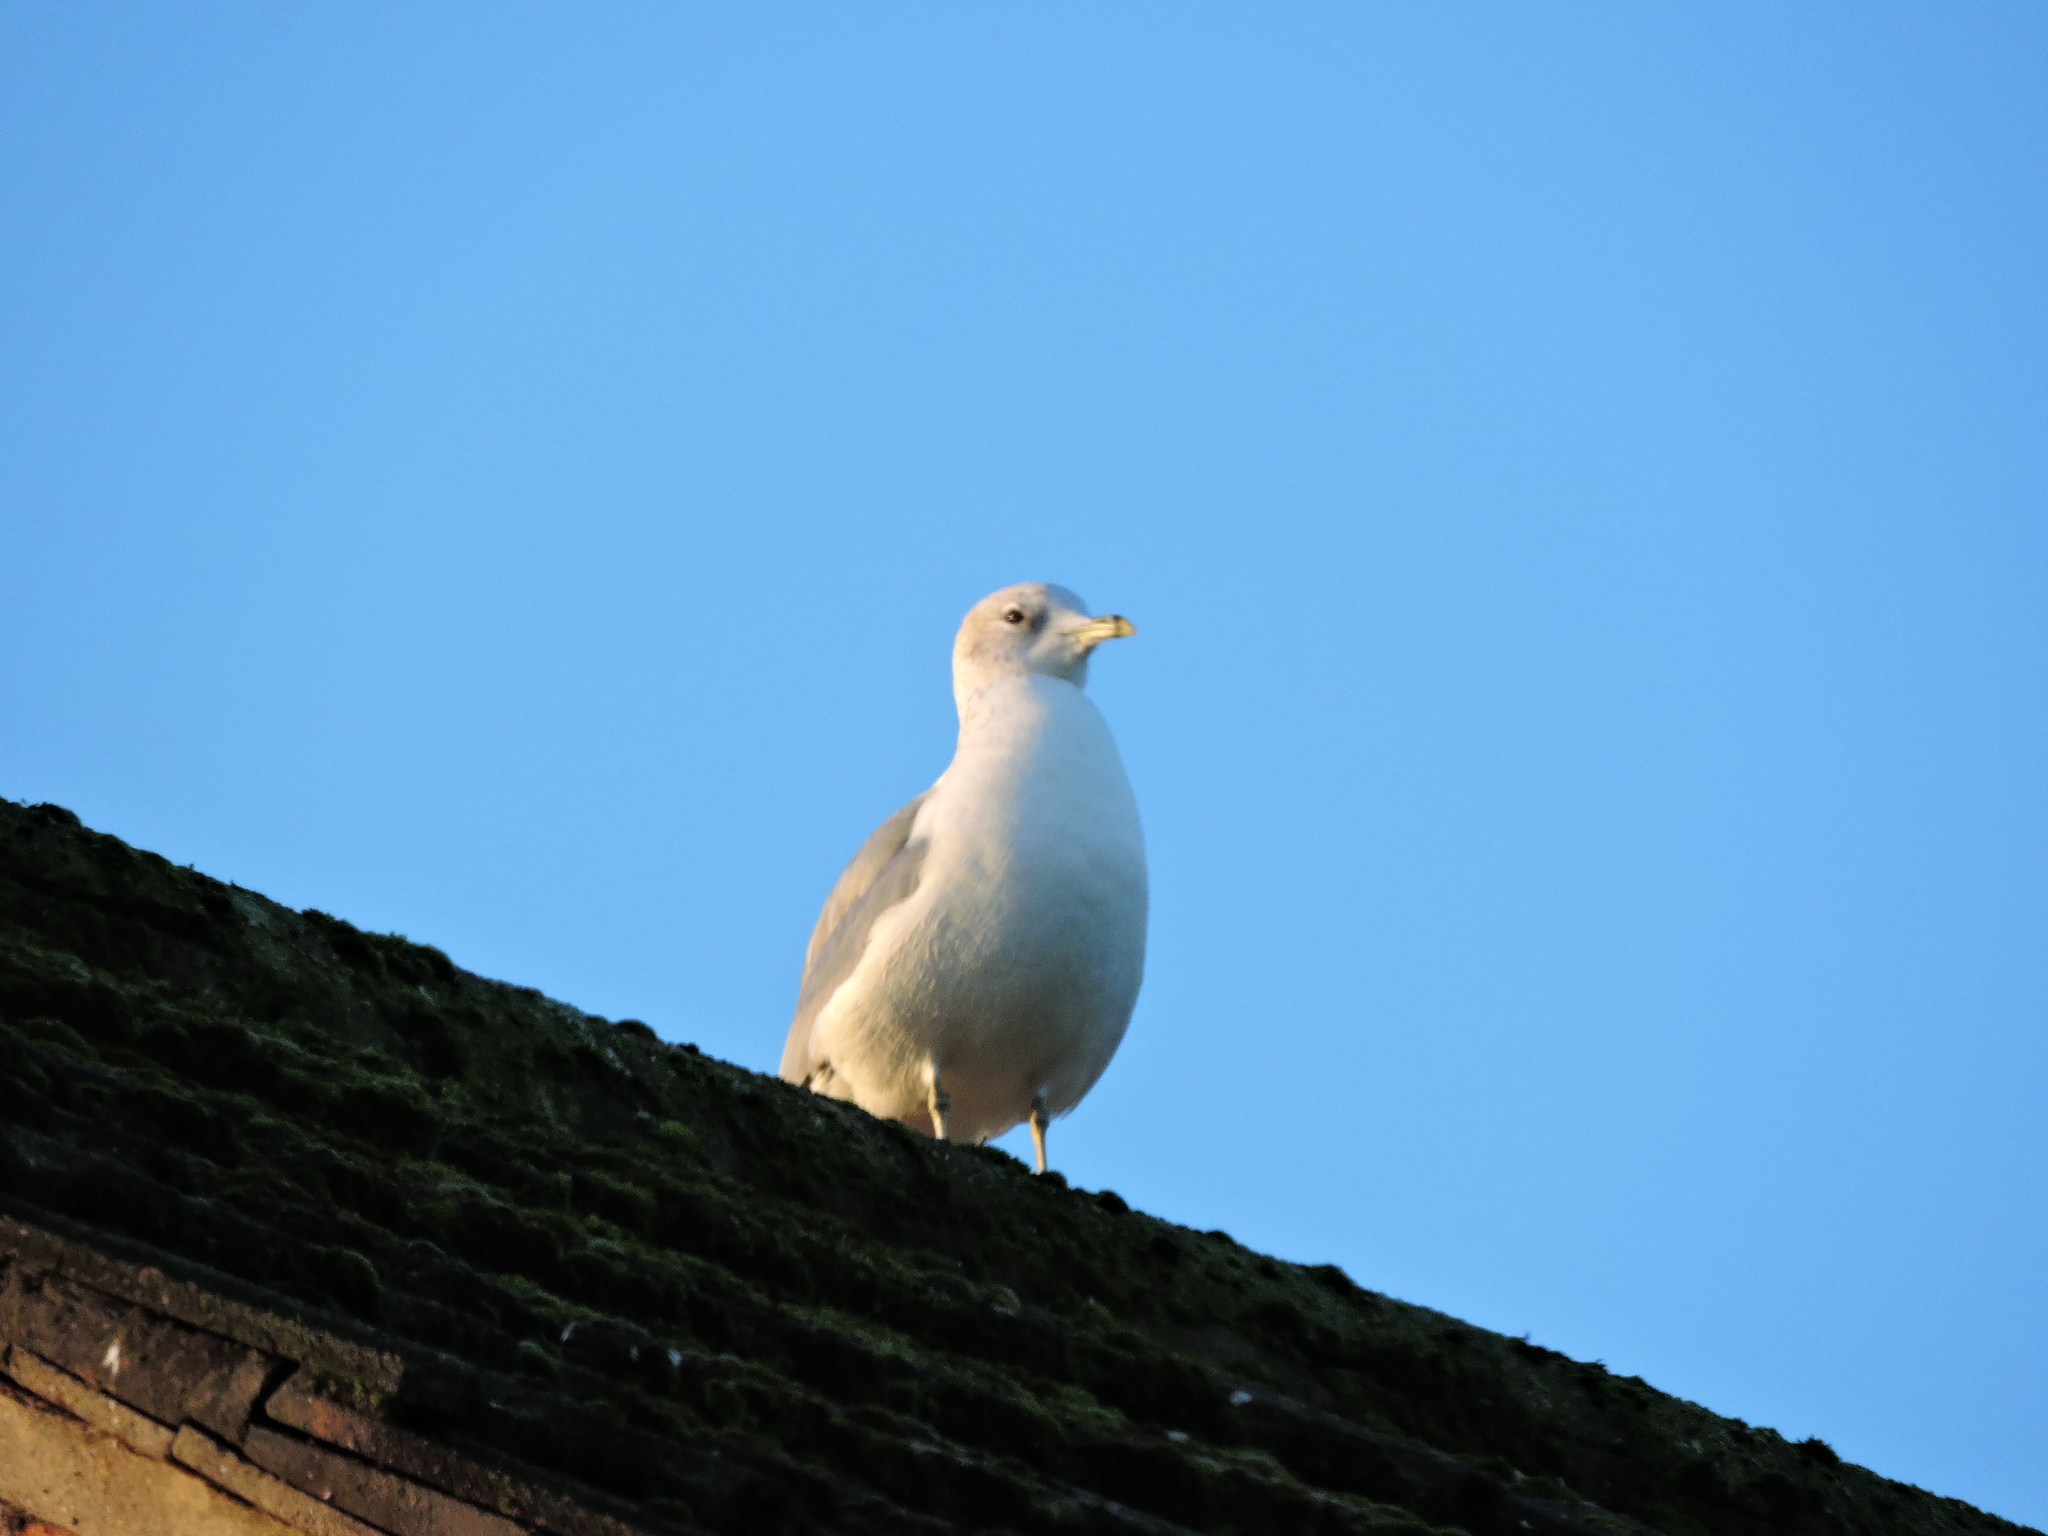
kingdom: Animalia
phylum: Chordata
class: Aves
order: Charadriiformes
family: Laridae
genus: Larus
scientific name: Larus canus
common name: Mew gull
